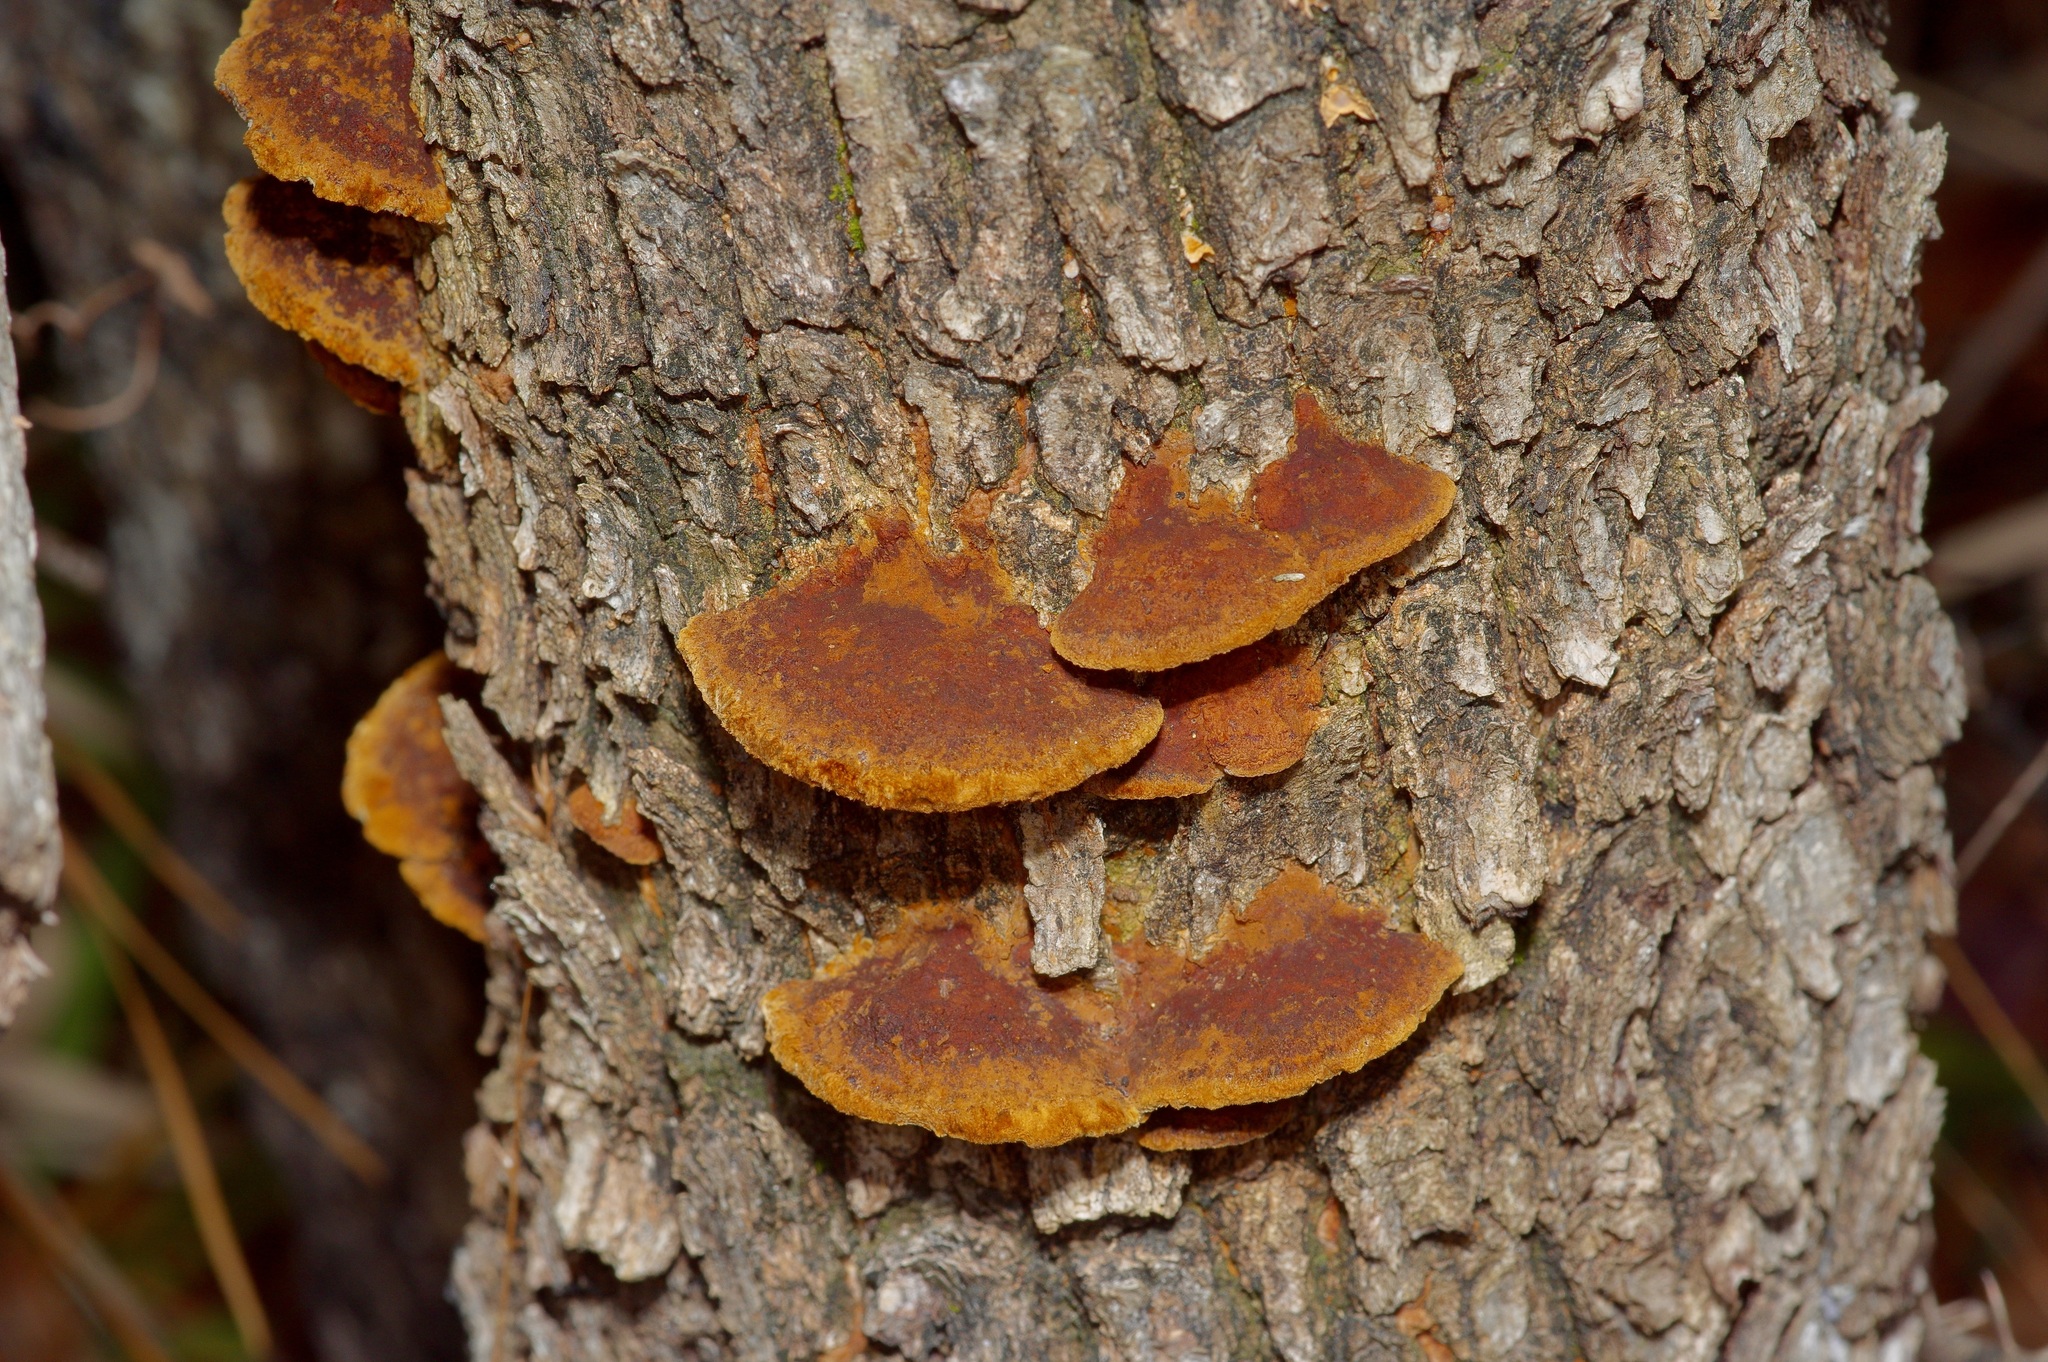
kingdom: Fungi
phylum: Basidiomycota
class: Agaricomycetes
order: Hymenochaetales
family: Hymenochaetaceae
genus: Phellinus
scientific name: Phellinus gilvus
